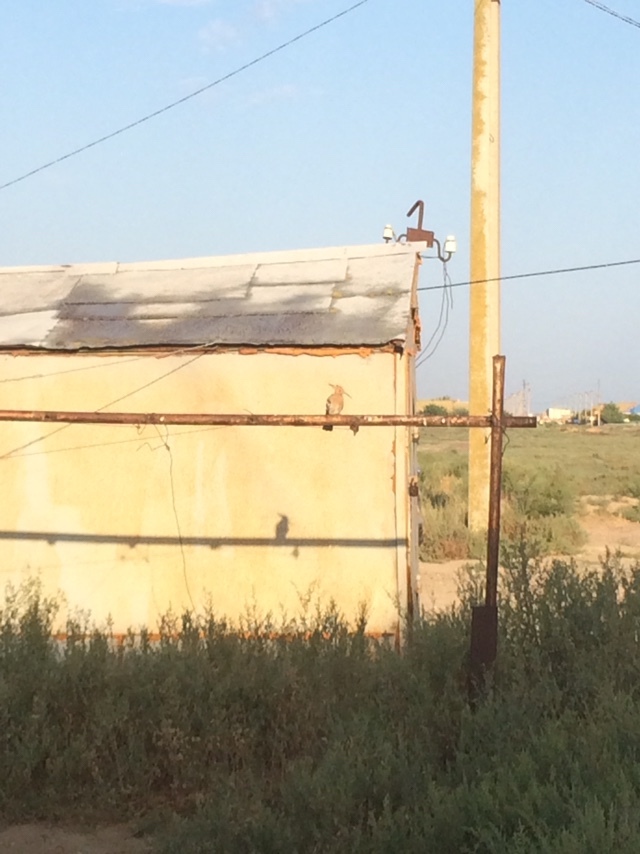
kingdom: Animalia
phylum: Chordata
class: Aves
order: Bucerotiformes
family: Upupidae
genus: Upupa
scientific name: Upupa epops
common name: Eurasian hoopoe
